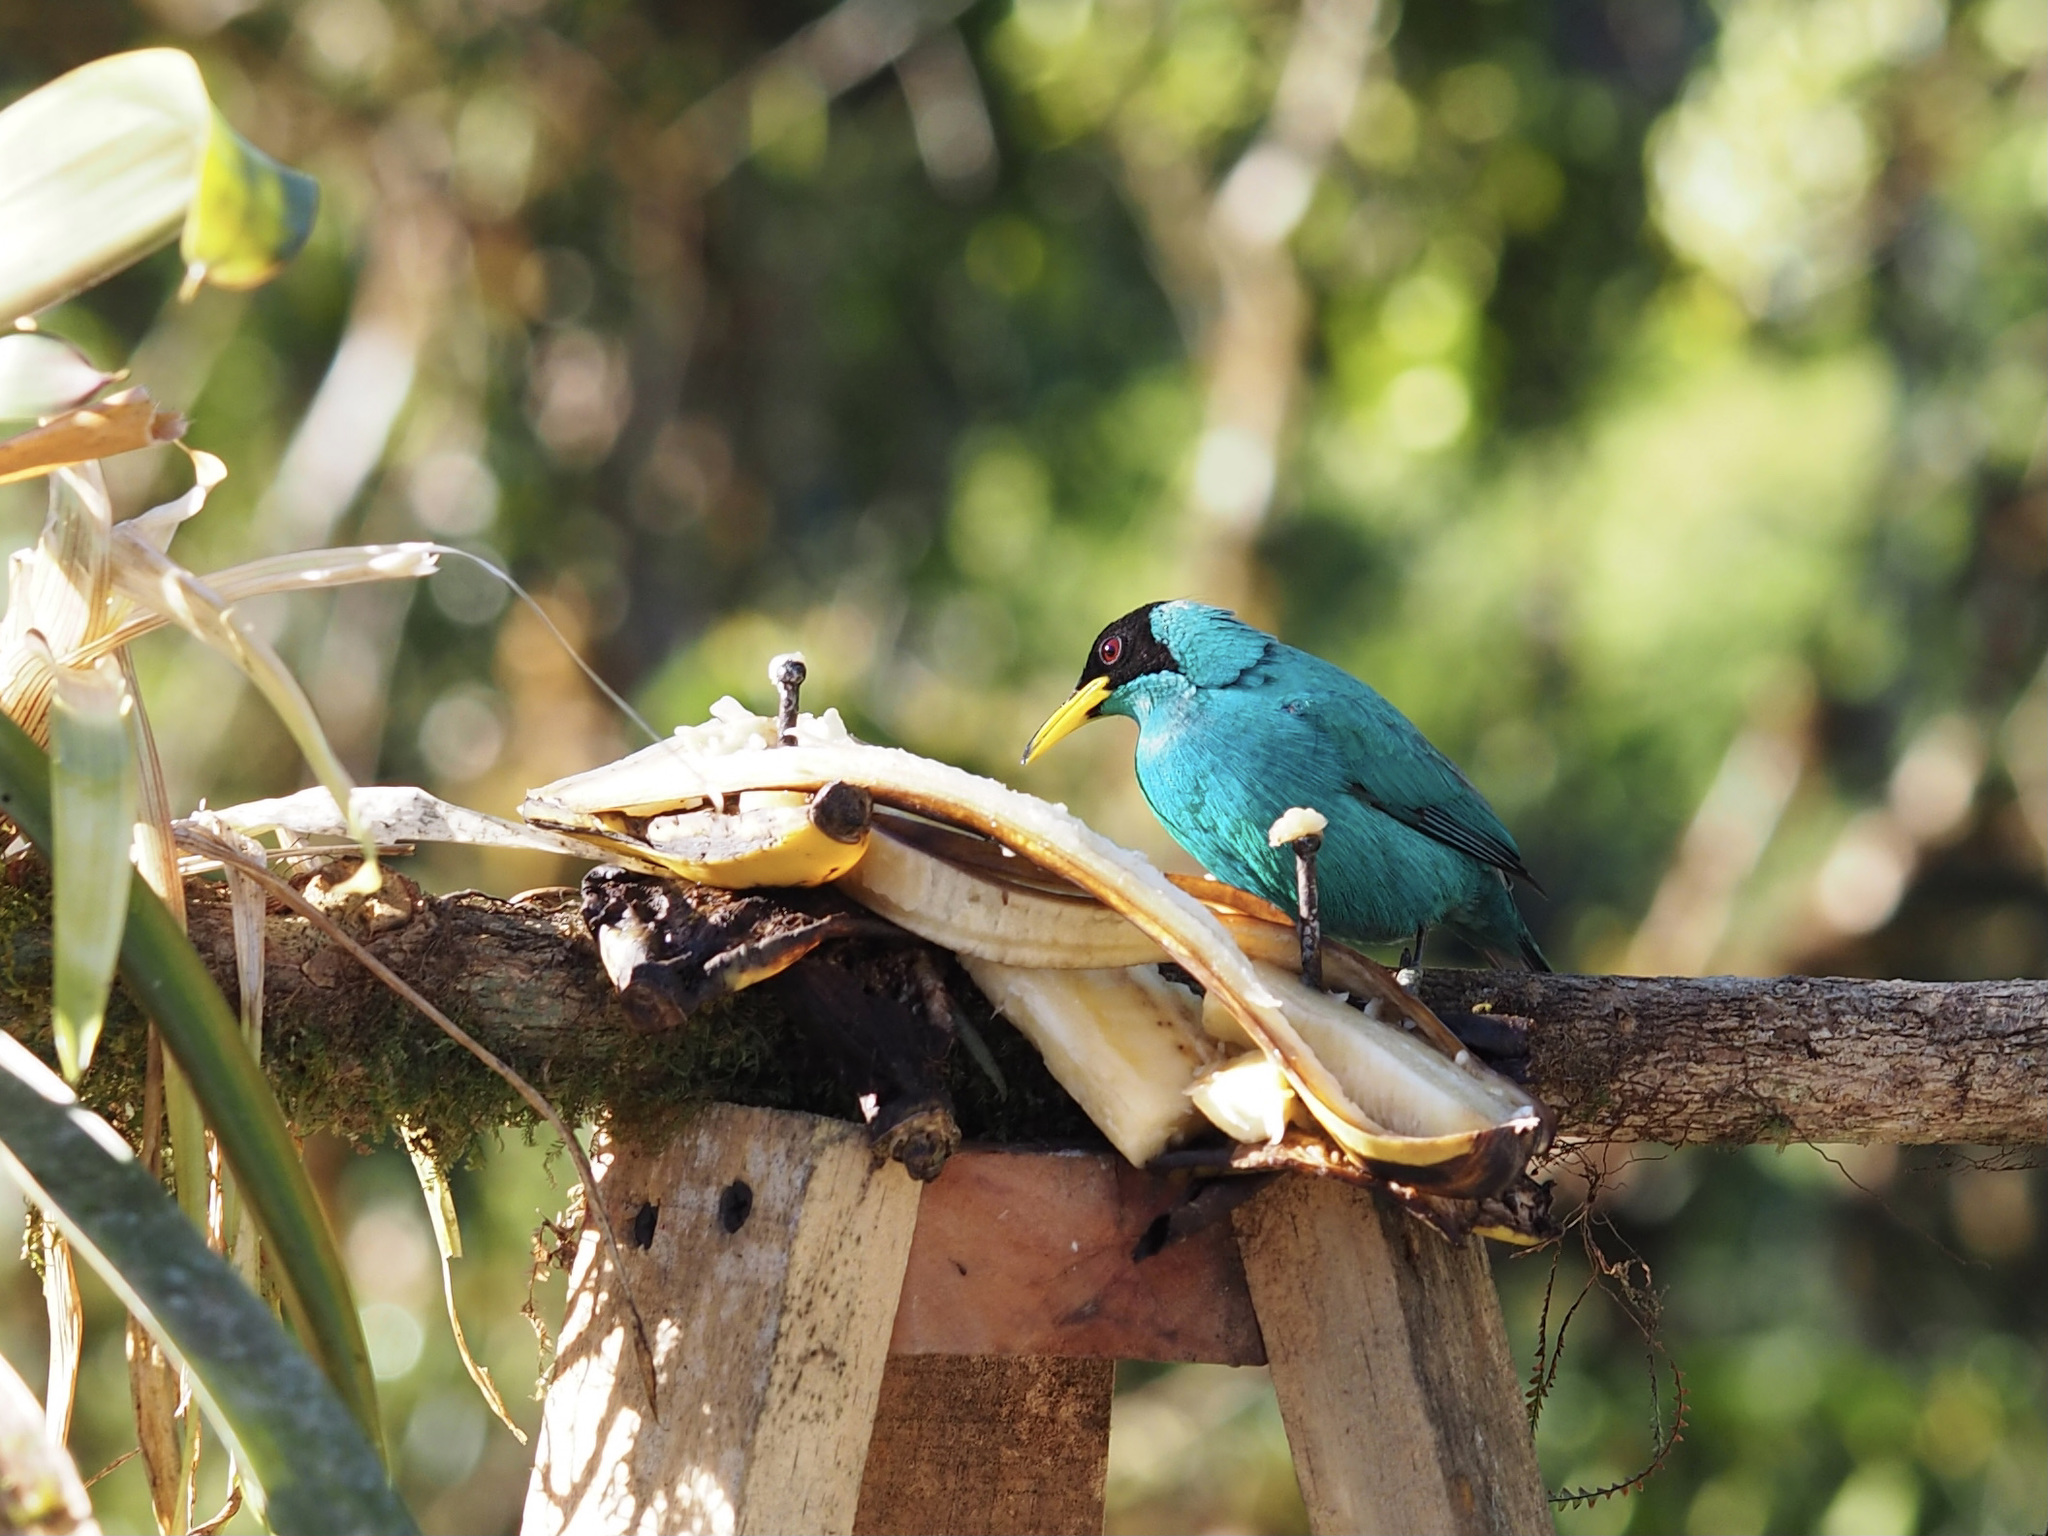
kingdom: Animalia
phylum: Chordata
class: Aves
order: Passeriformes
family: Thraupidae
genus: Chlorophanes
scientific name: Chlorophanes spiza
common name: Green honeycreeper
